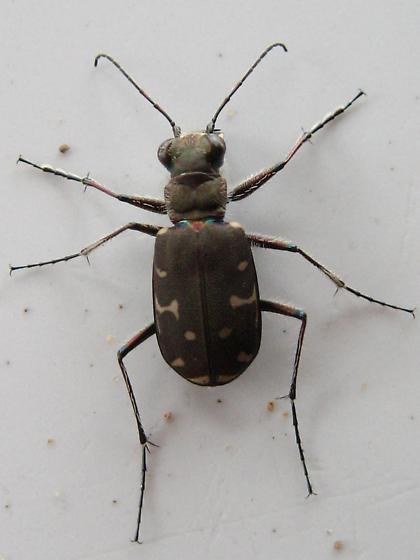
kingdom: Animalia
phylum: Arthropoda
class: Insecta
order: Coleoptera
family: Carabidae
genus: Cicindela
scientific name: Cicindela duodecimguttata
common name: Twelve-spotted tiger beetle
